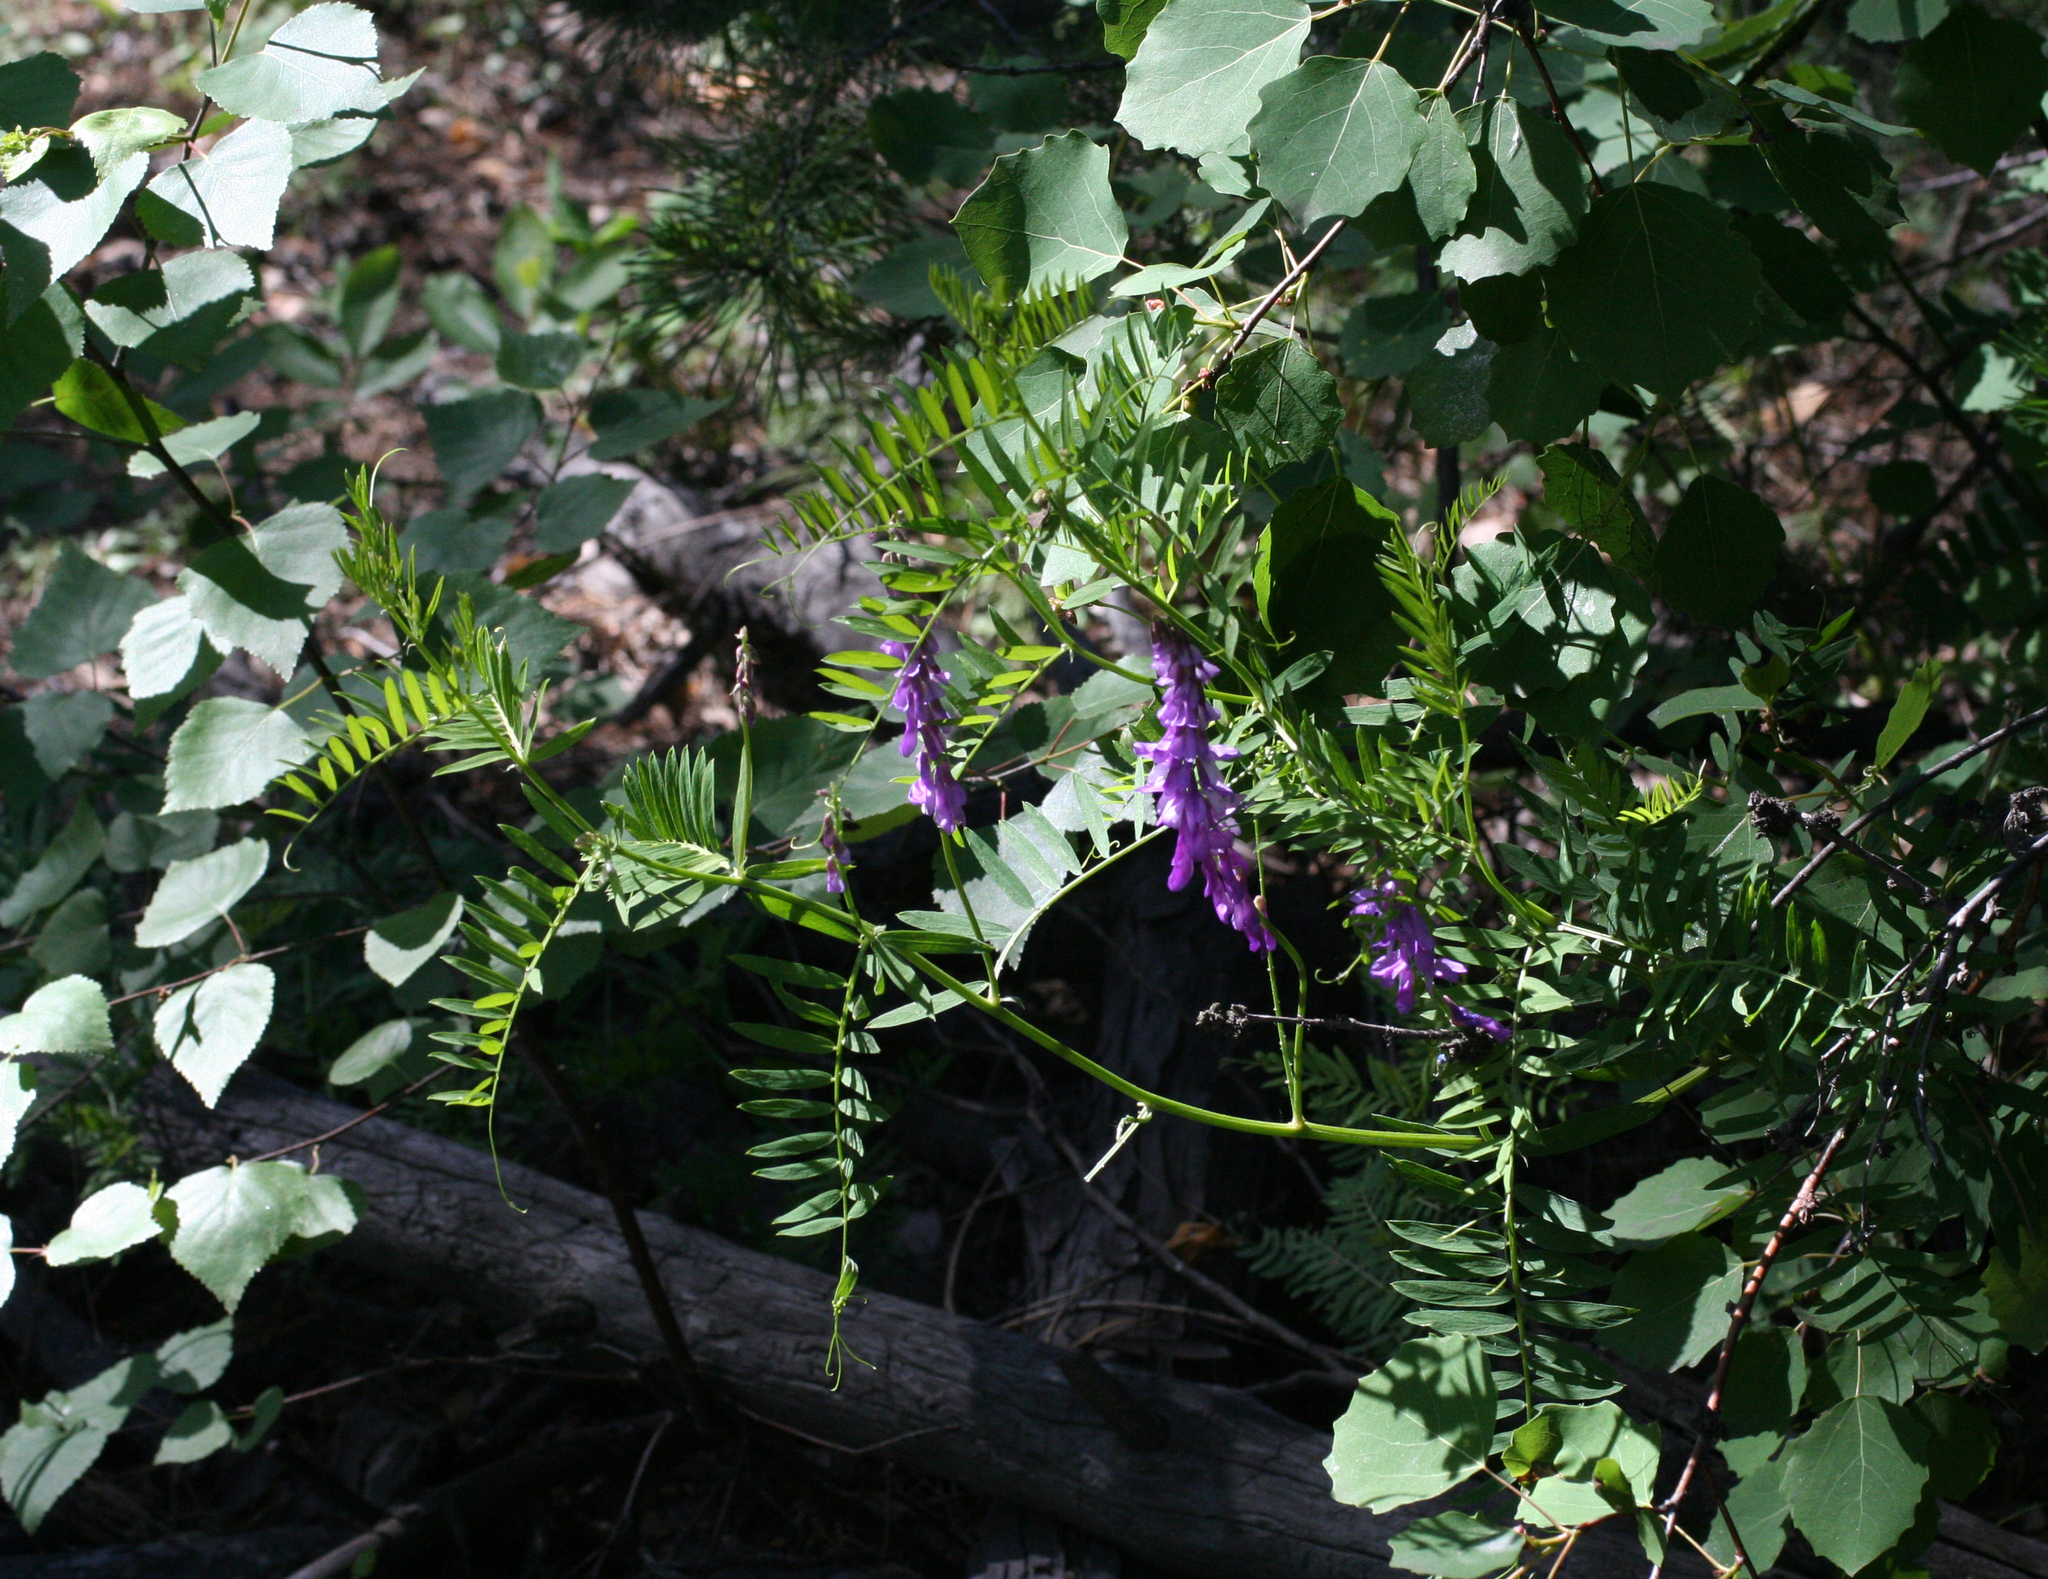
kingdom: Plantae
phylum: Tracheophyta
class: Magnoliopsida
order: Fabales
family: Fabaceae
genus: Vicia
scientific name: Vicia tenuifolia
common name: Fine-leaved vetch
